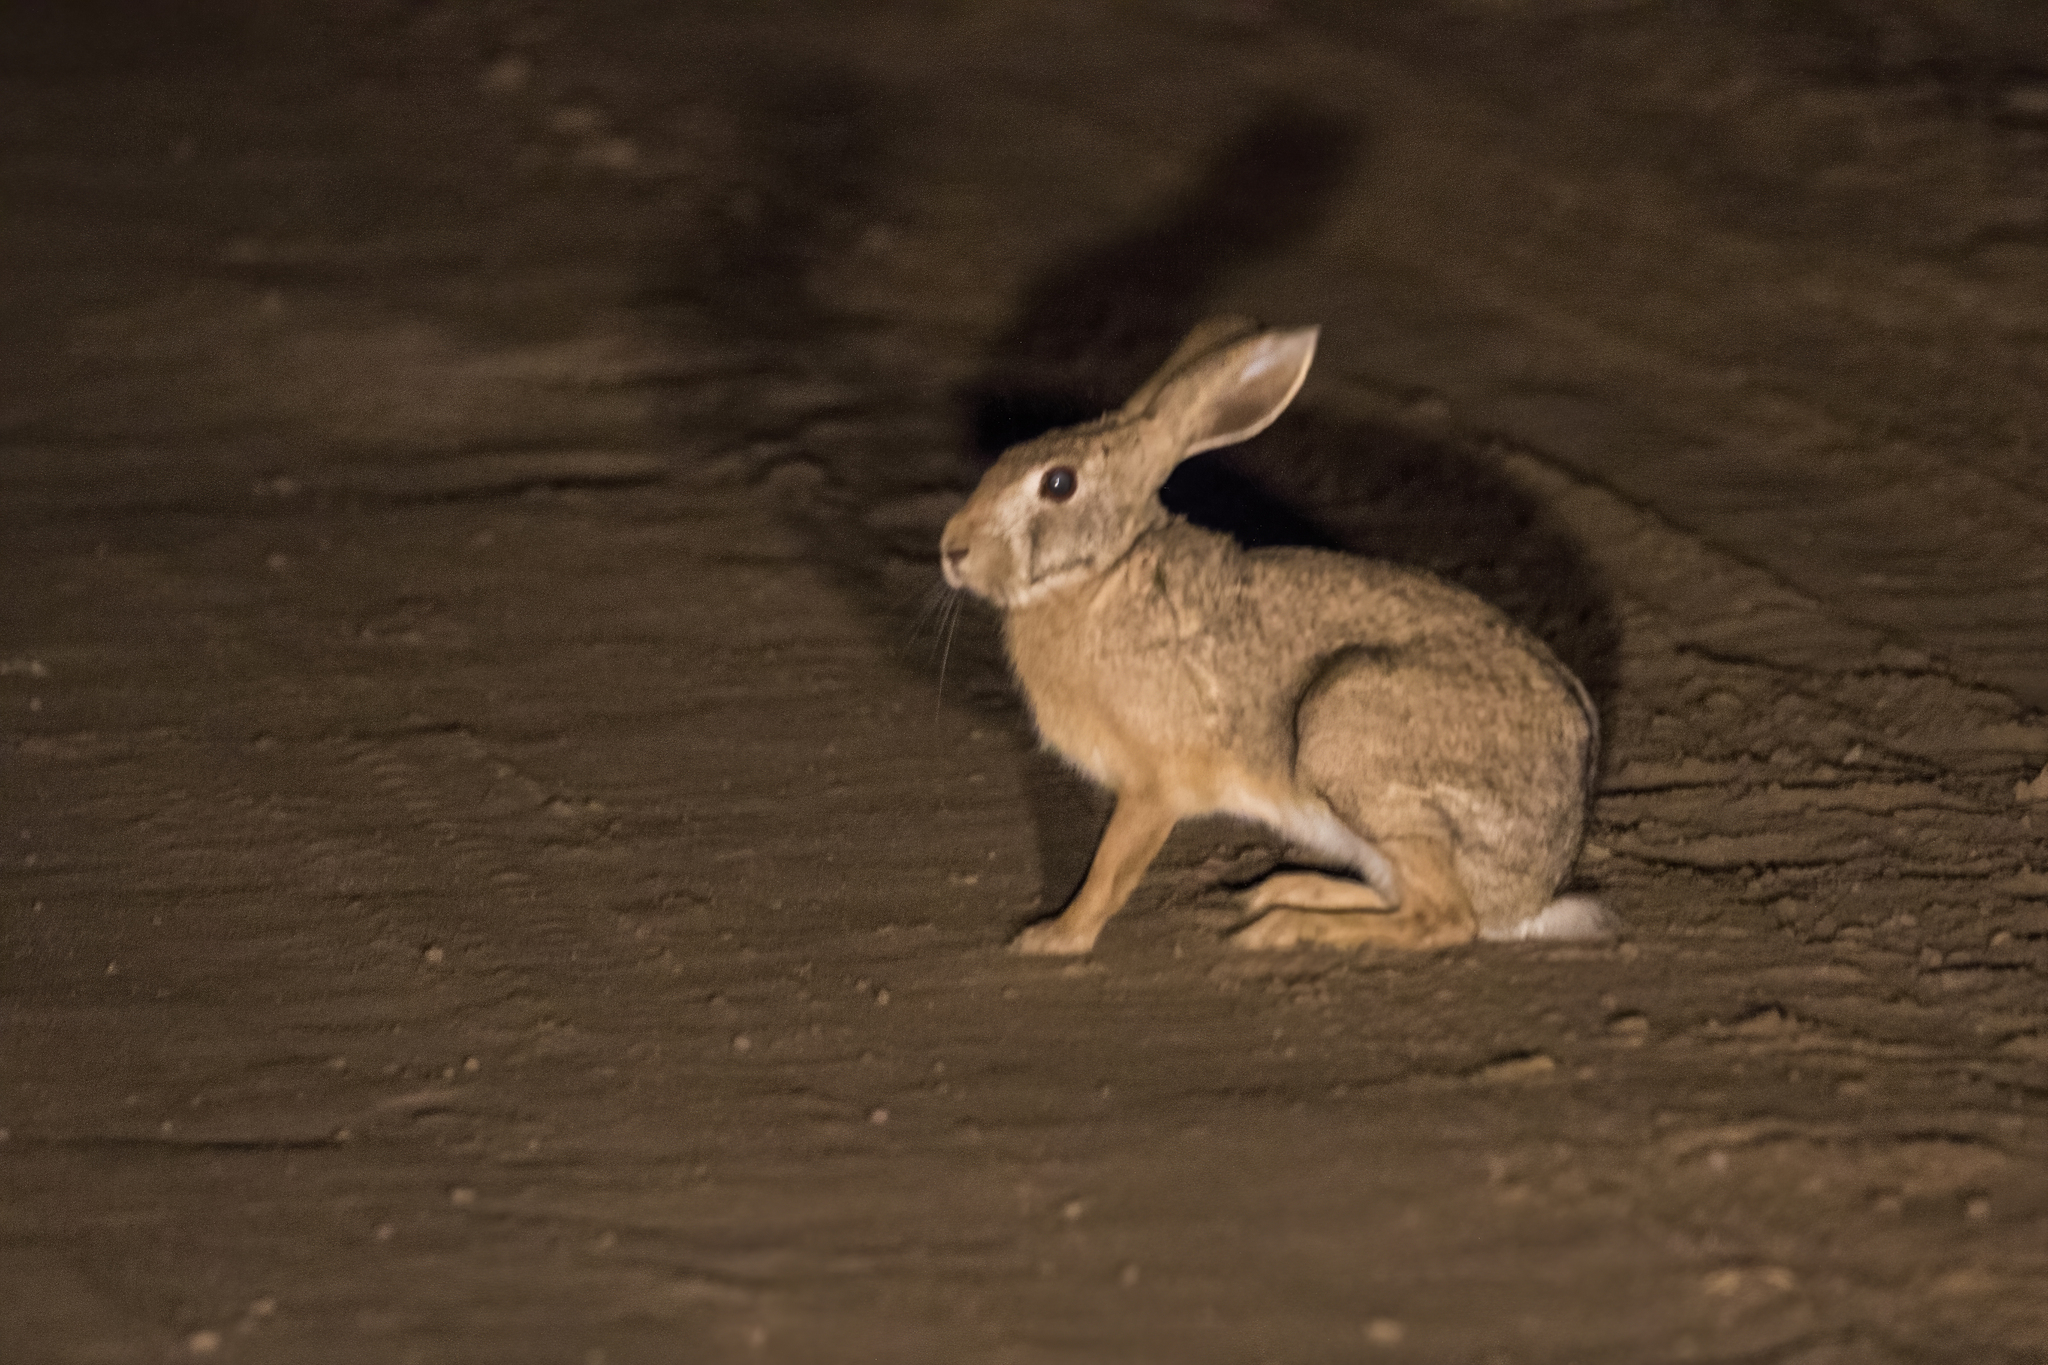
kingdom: Animalia
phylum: Chordata
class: Mammalia
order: Lagomorpha
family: Leporidae
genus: Lepus
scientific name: Lepus nigricollis
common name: Indian hare
